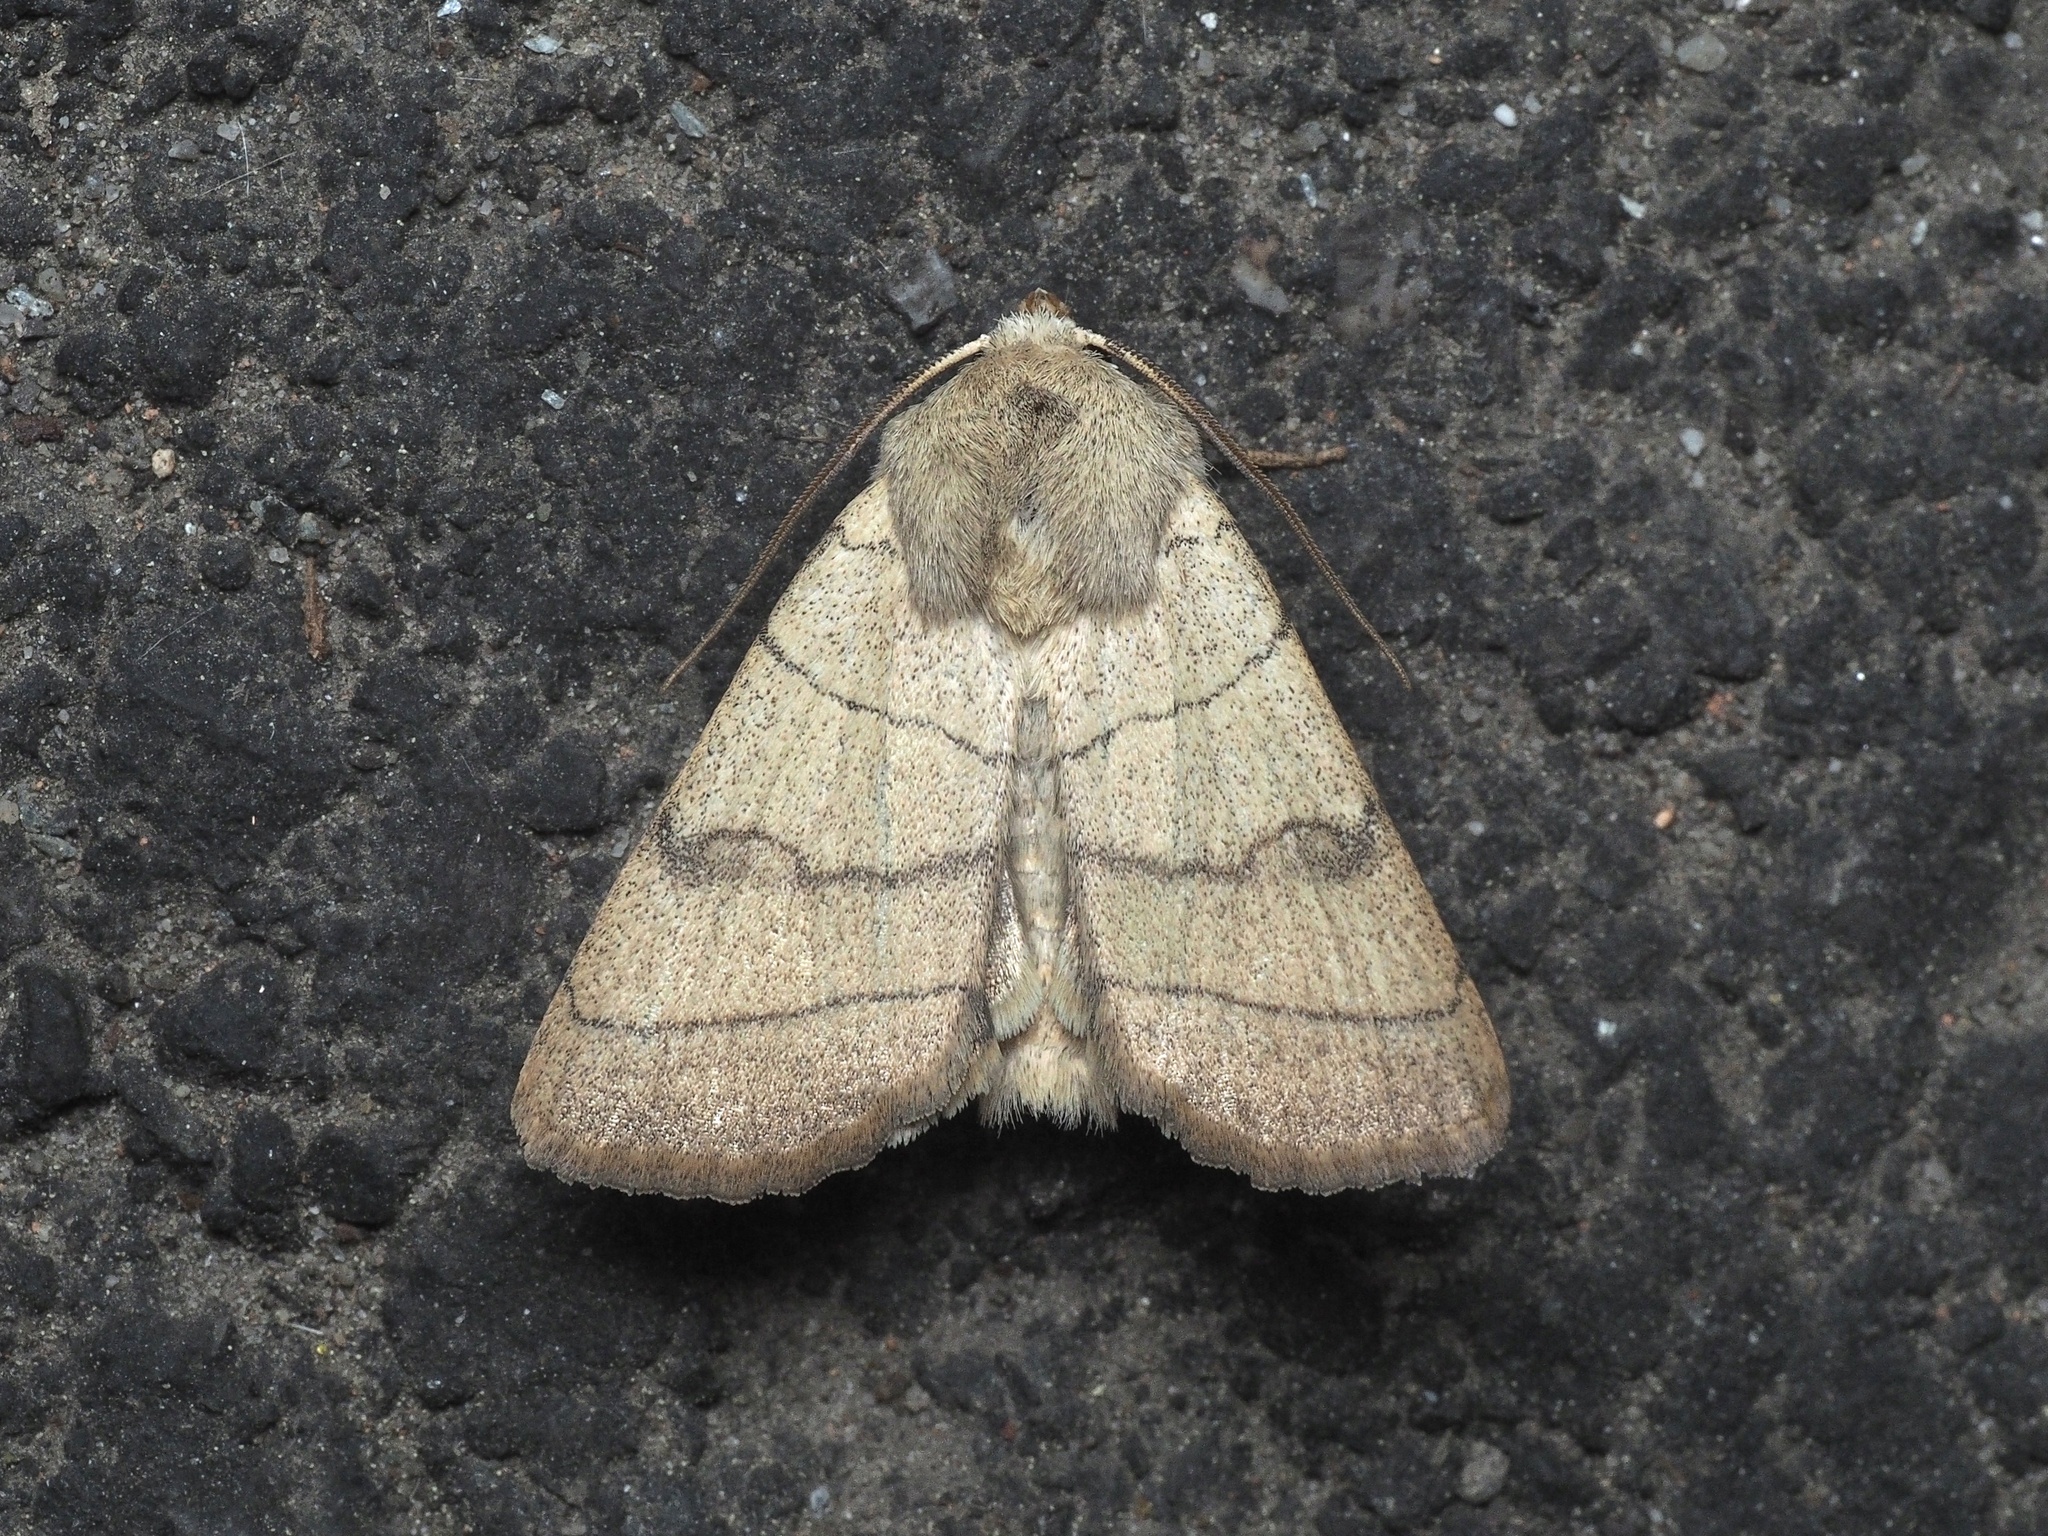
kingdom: Animalia
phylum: Arthropoda
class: Insecta
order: Lepidoptera
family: Noctuidae
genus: Charanyca
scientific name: Charanyca trigrammica
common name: Treble lines
